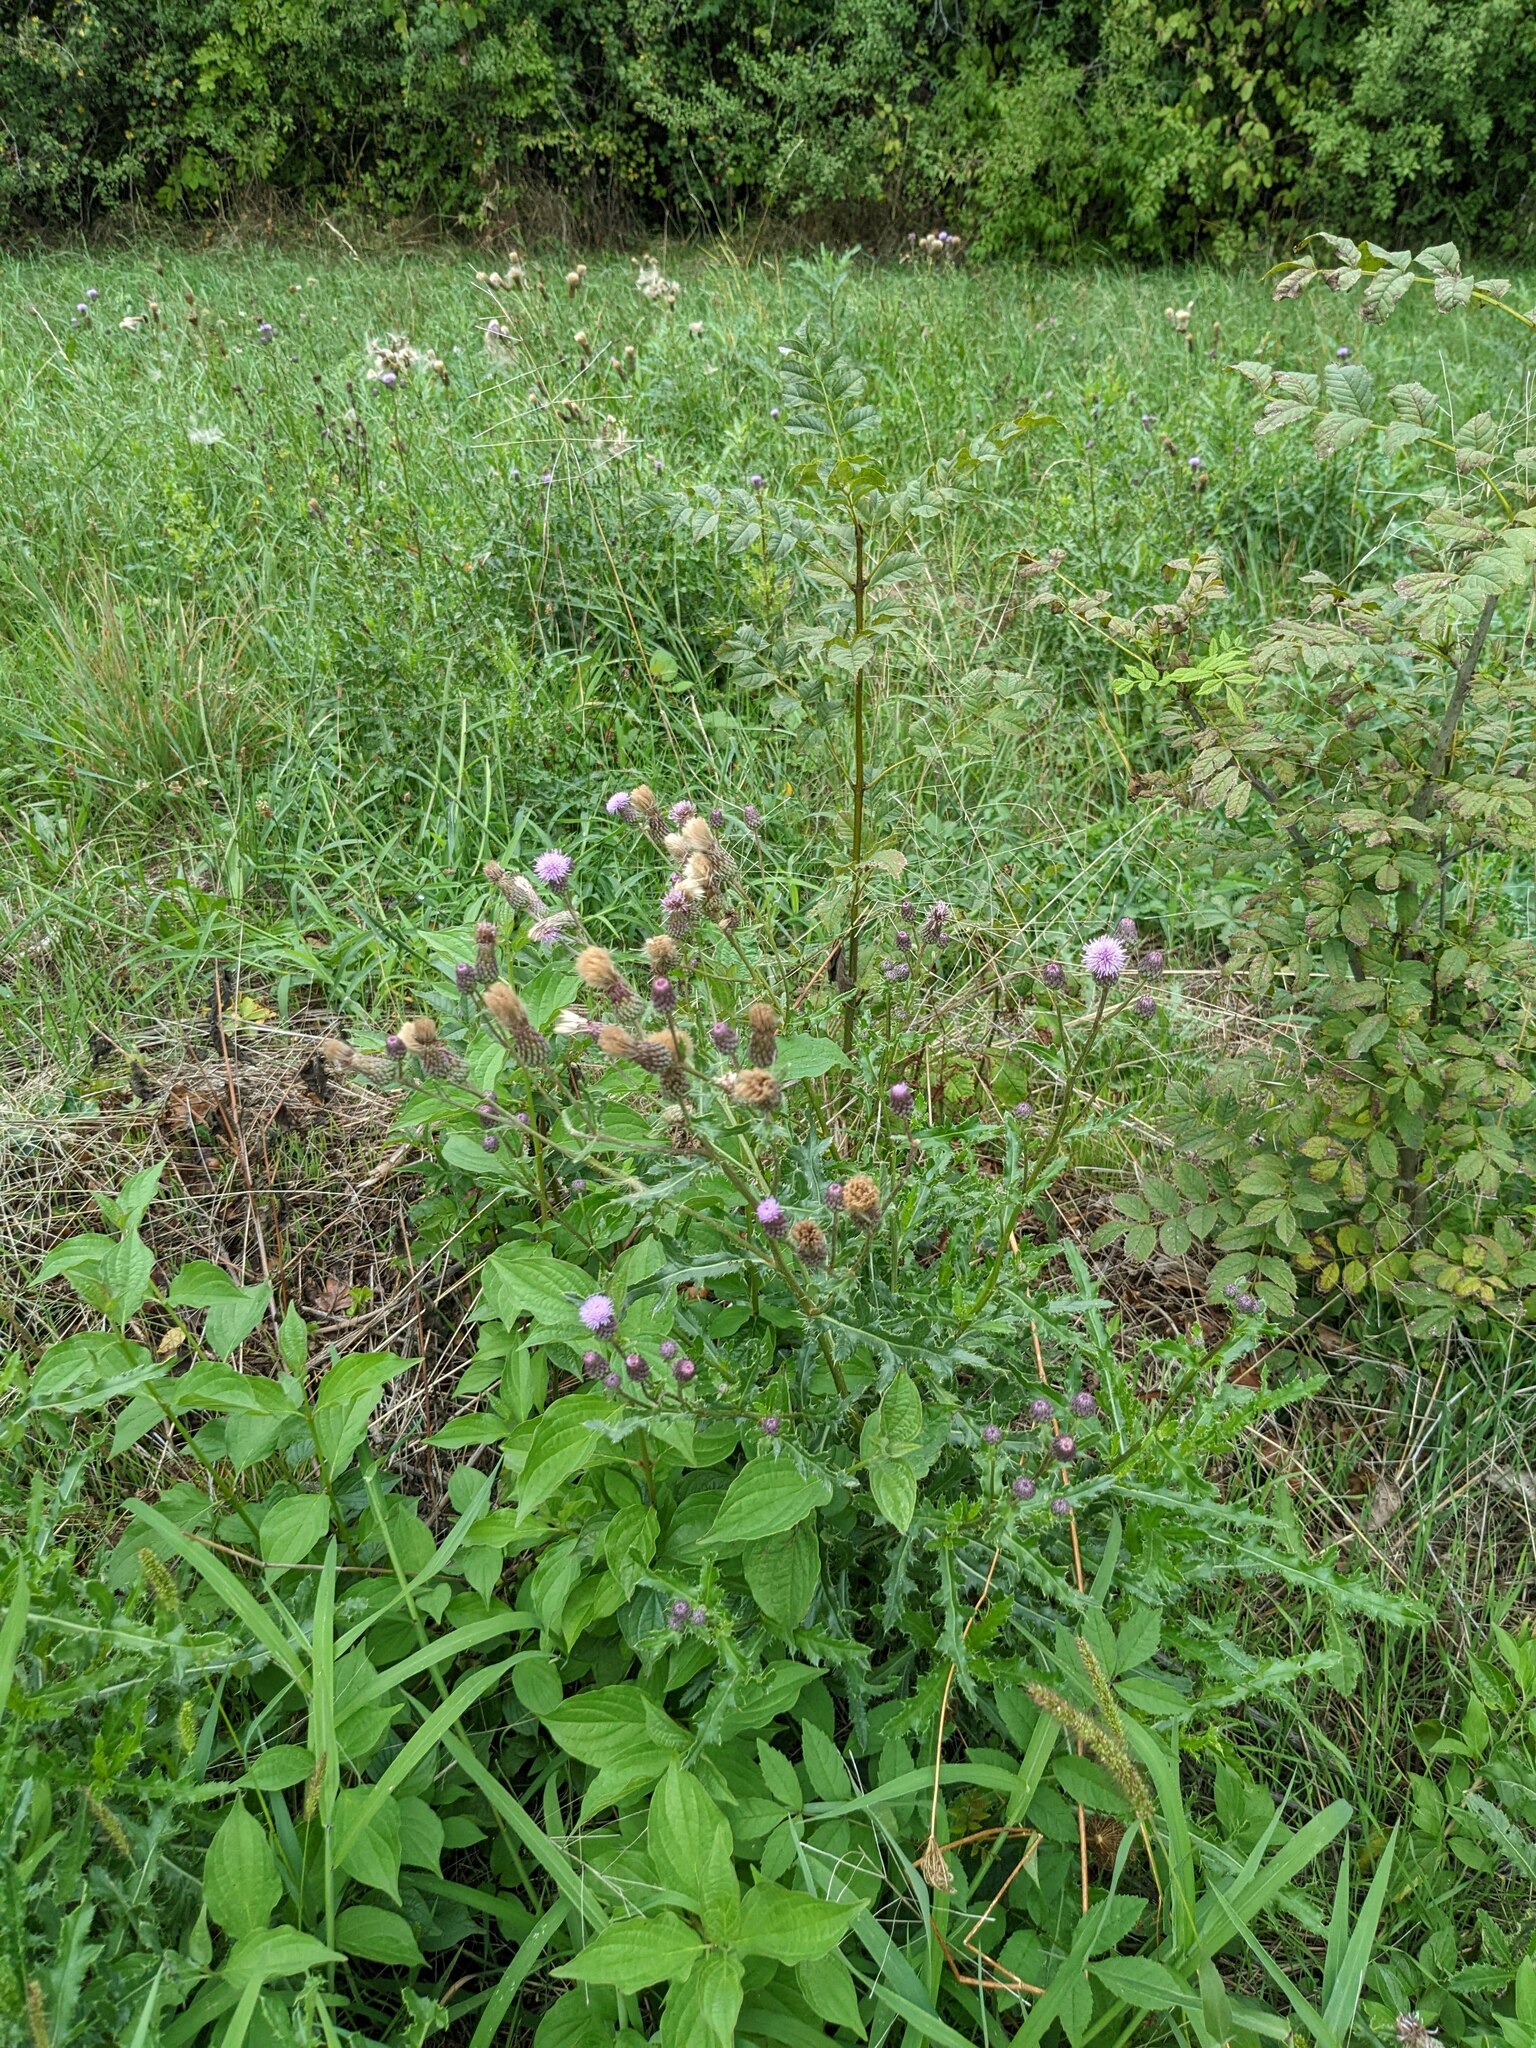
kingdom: Plantae
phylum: Tracheophyta
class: Magnoliopsida
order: Asterales
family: Asteraceae
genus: Cirsium
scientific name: Cirsium arvense
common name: Creeping thistle
